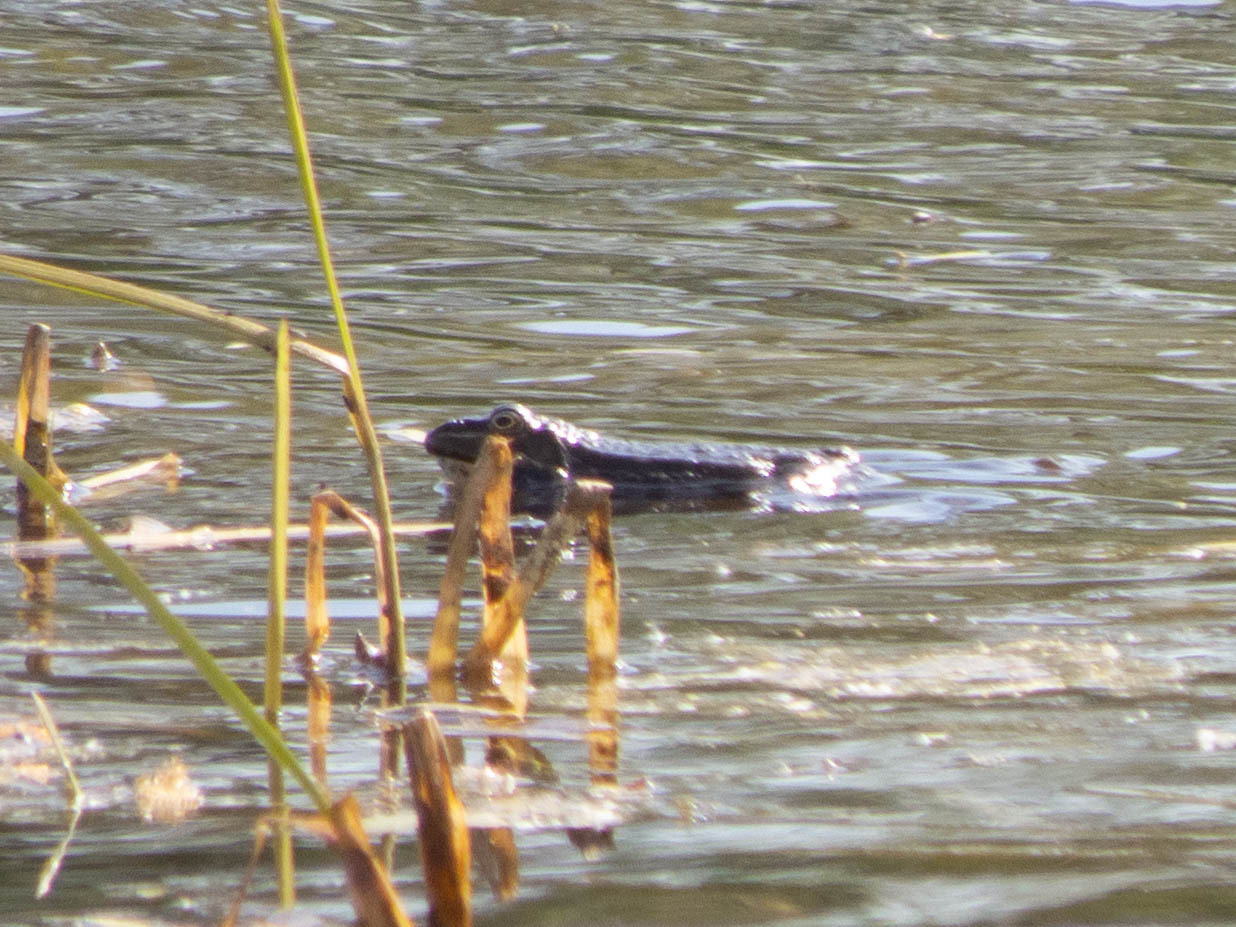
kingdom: Animalia
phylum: Chordata
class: Amphibia
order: Anura
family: Ranidae
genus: Pelophylax
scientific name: Pelophylax ridibundus
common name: Marsh frog
